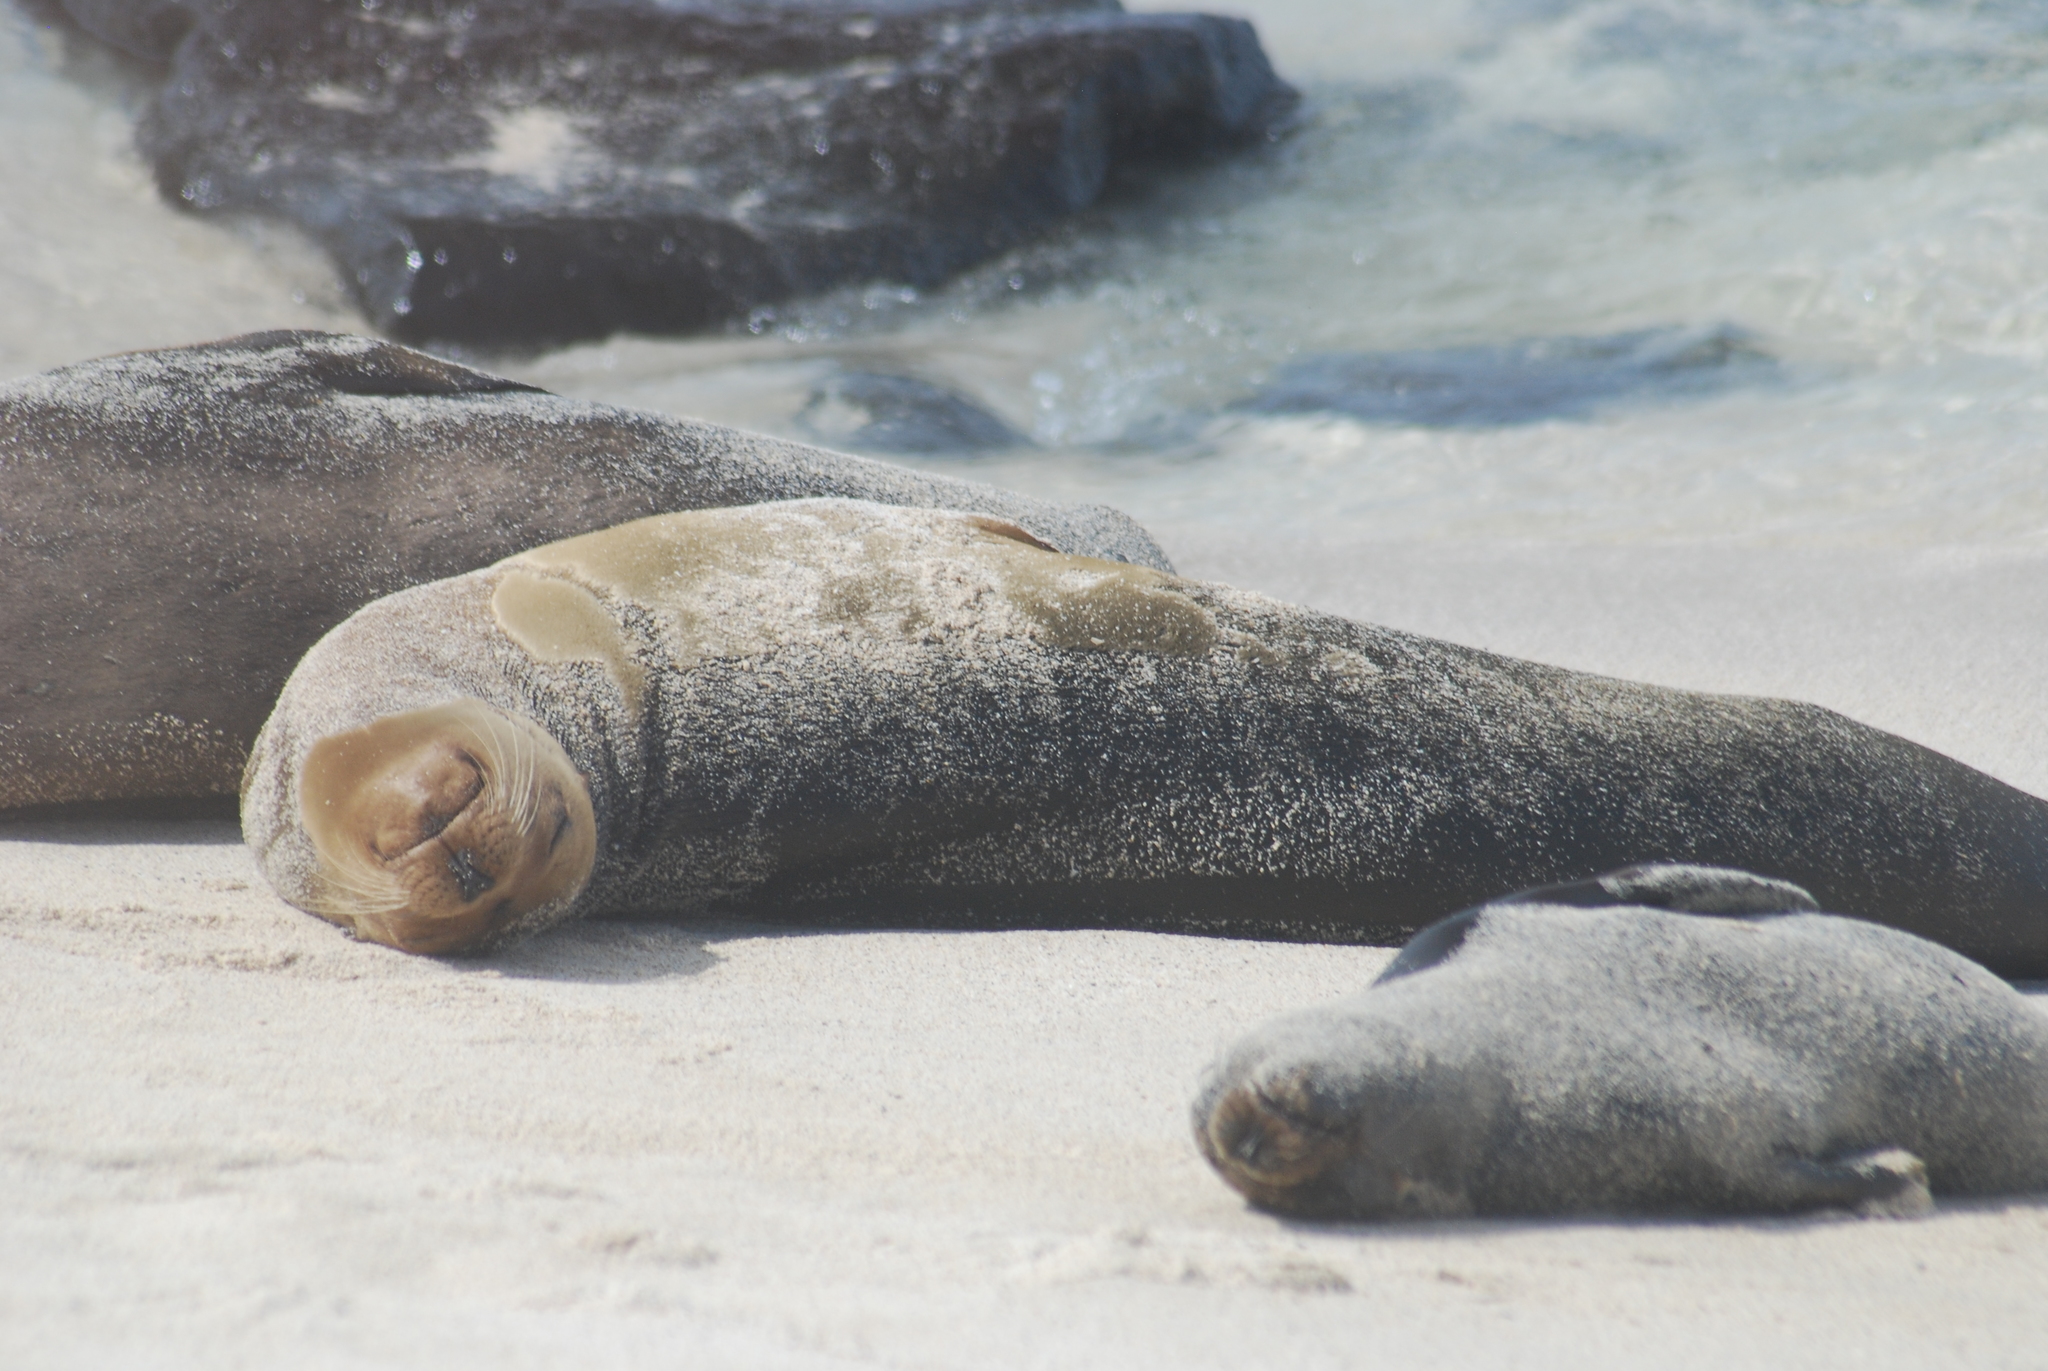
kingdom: Animalia
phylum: Chordata
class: Mammalia
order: Carnivora
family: Otariidae
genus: Zalophus
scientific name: Zalophus wollebaeki
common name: Galapagos sea lion
